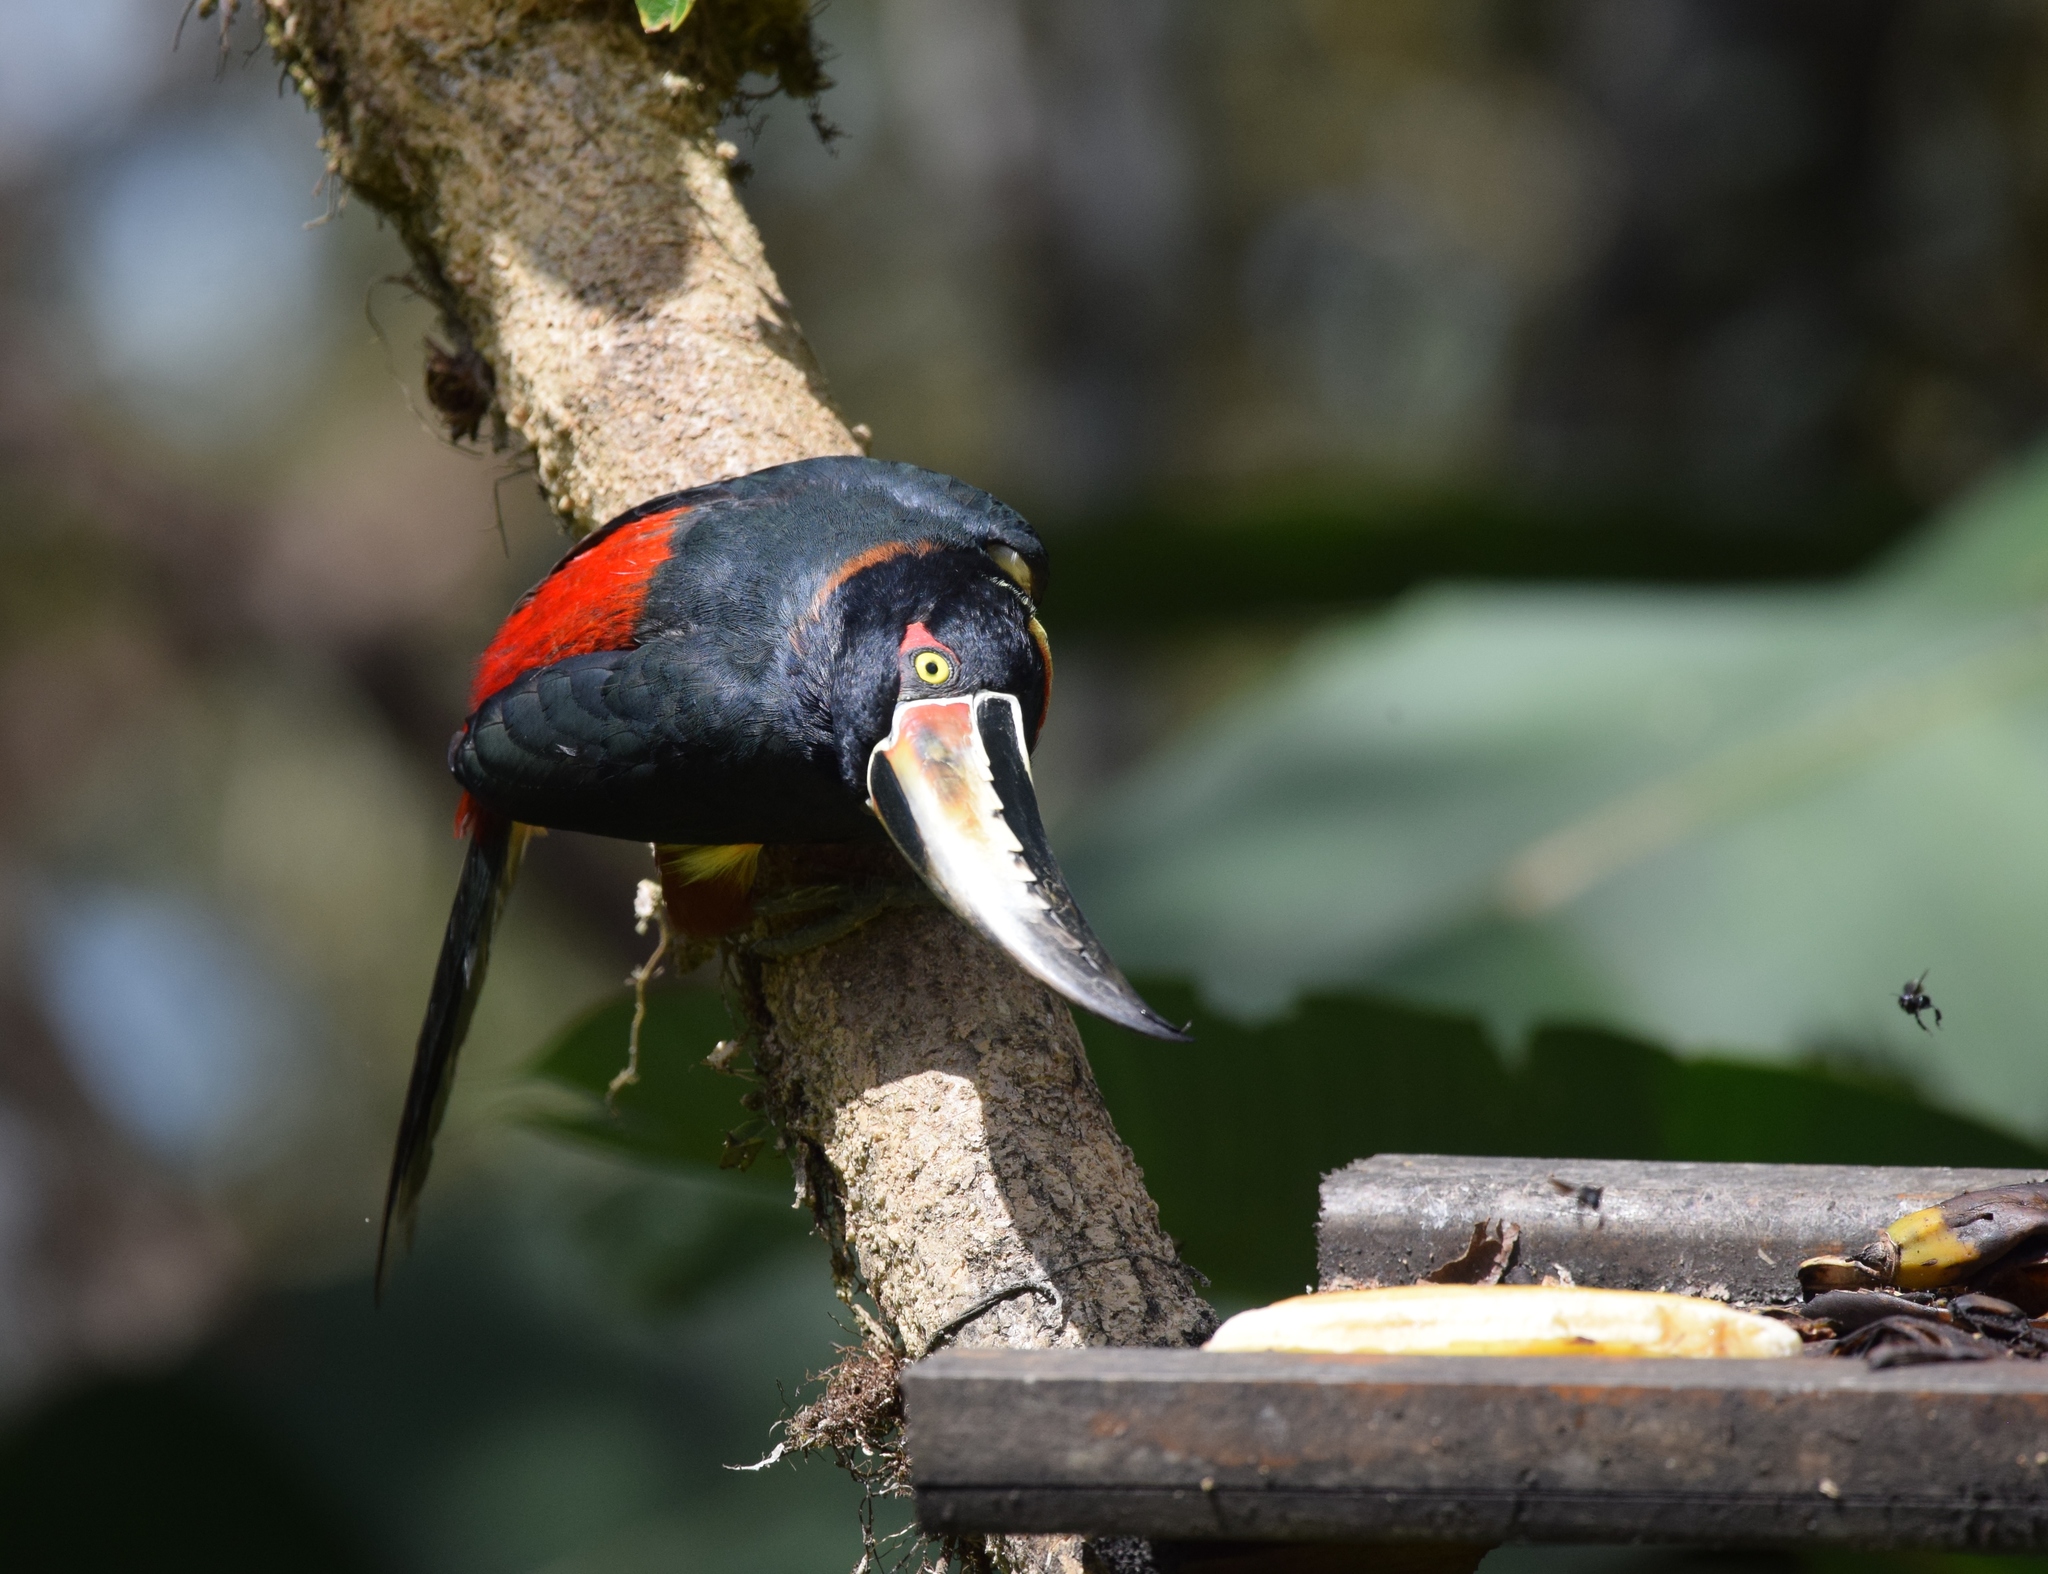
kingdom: Animalia
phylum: Chordata
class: Aves
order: Piciformes
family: Ramphastidae
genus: Pteroglossus
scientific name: Pteroglossus torquatus
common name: Collared aracari
